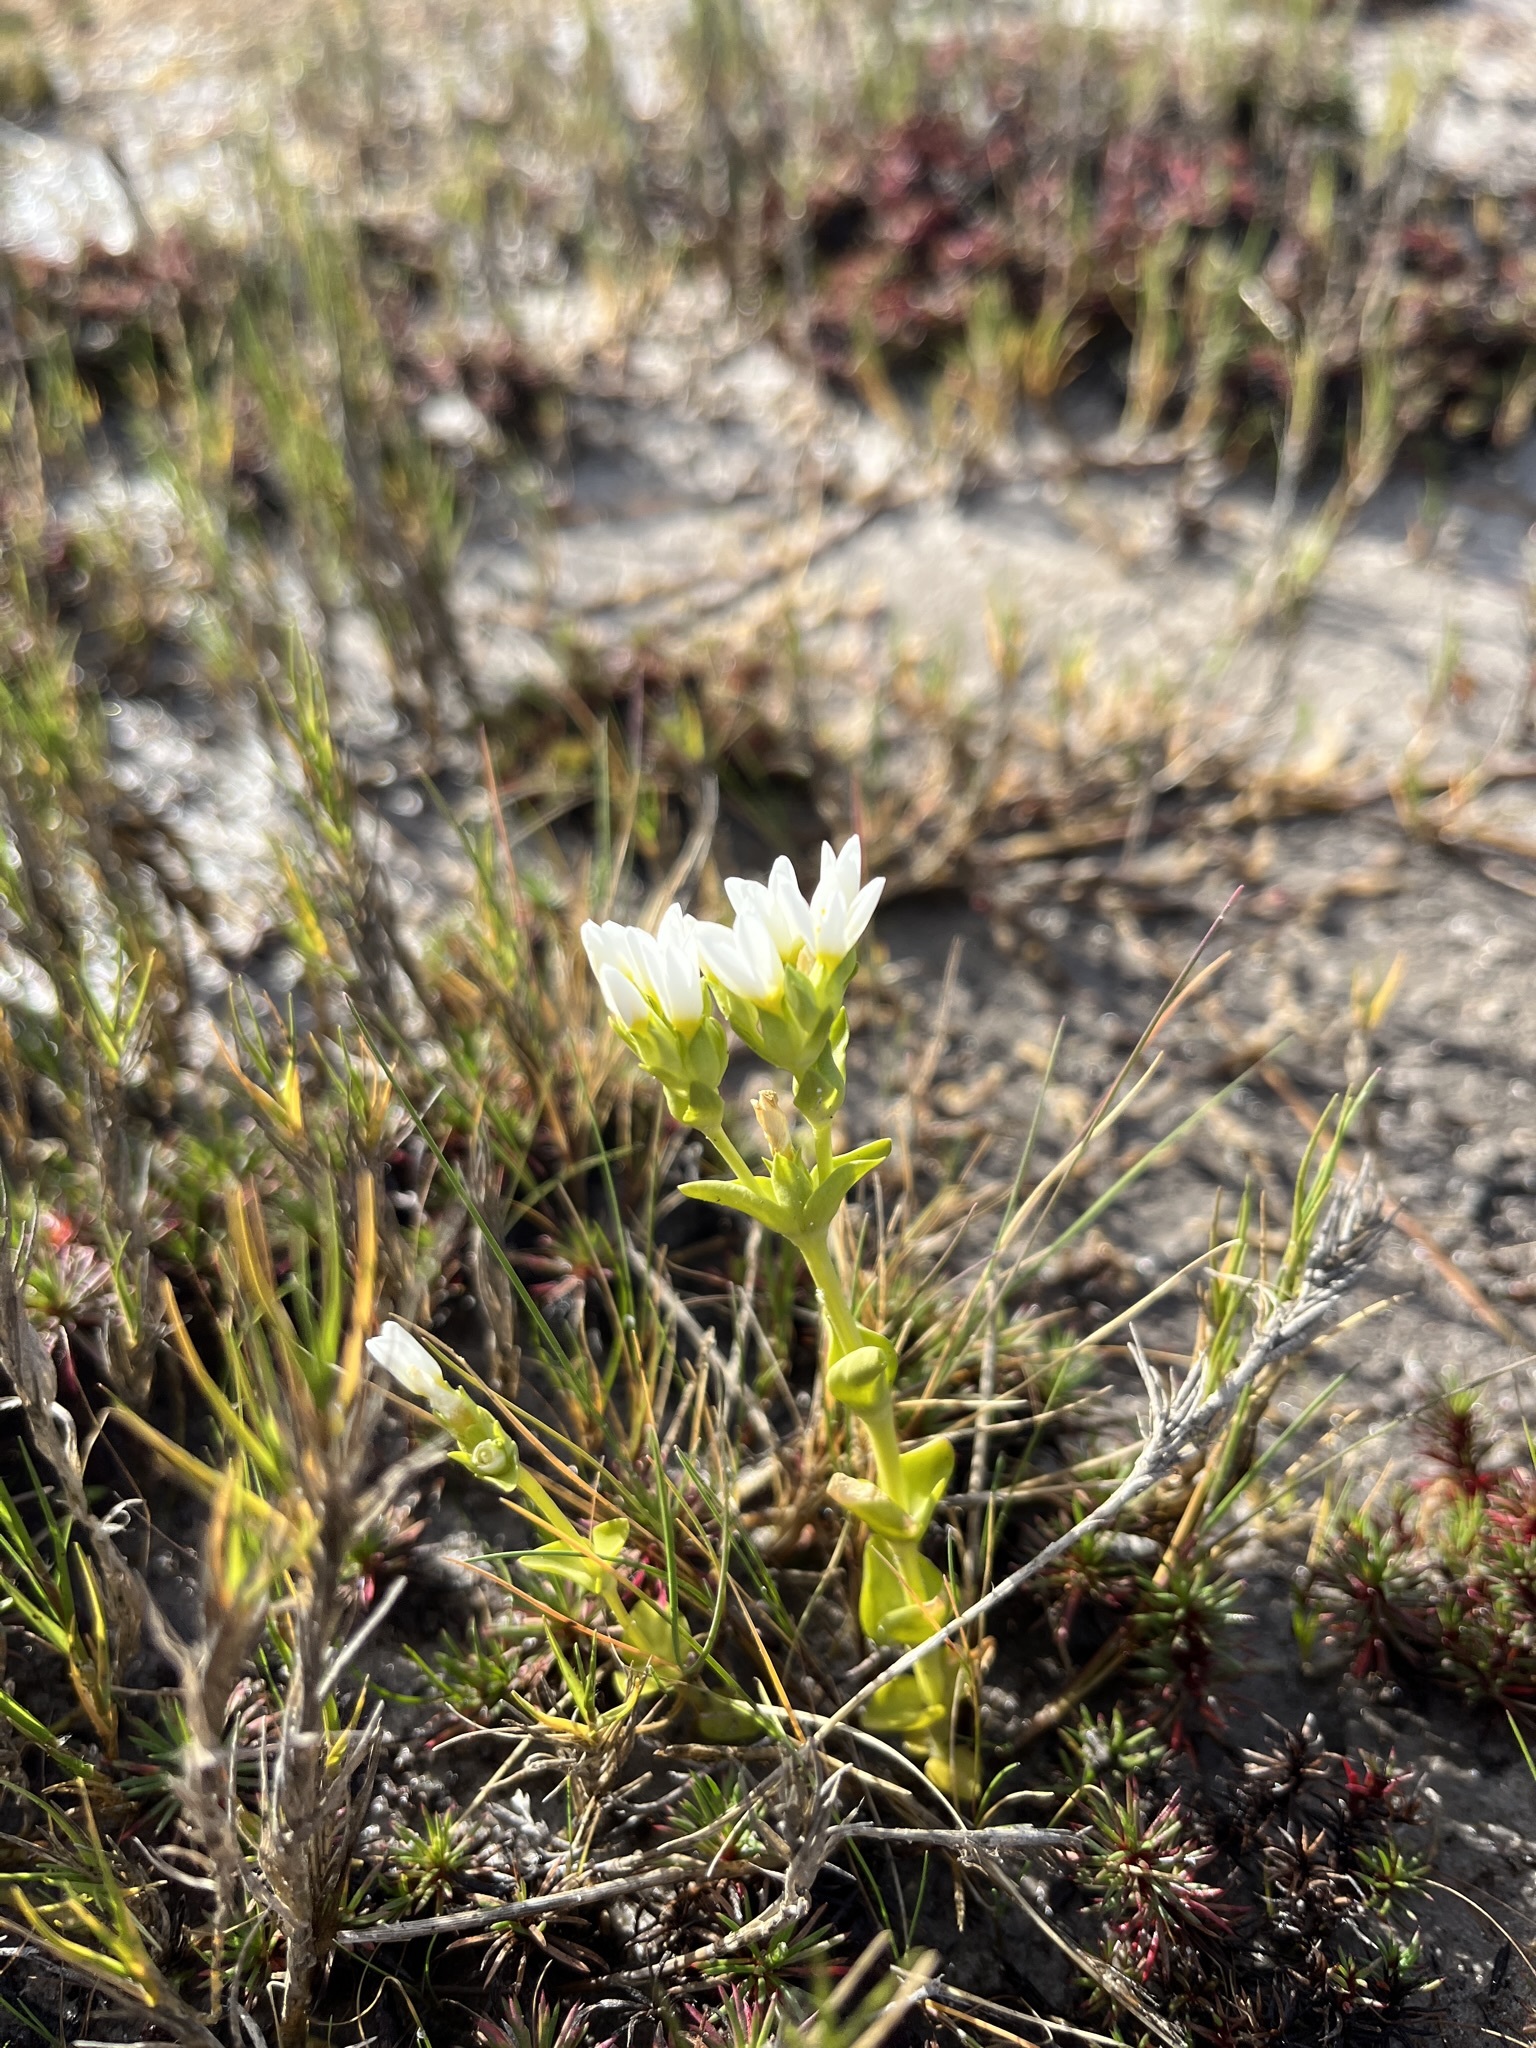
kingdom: Plantae
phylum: Tracheophyta
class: Magnoliopsida
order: Gentianales
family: Gentianaceae
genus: Sebaea
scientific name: Sebaea albens
